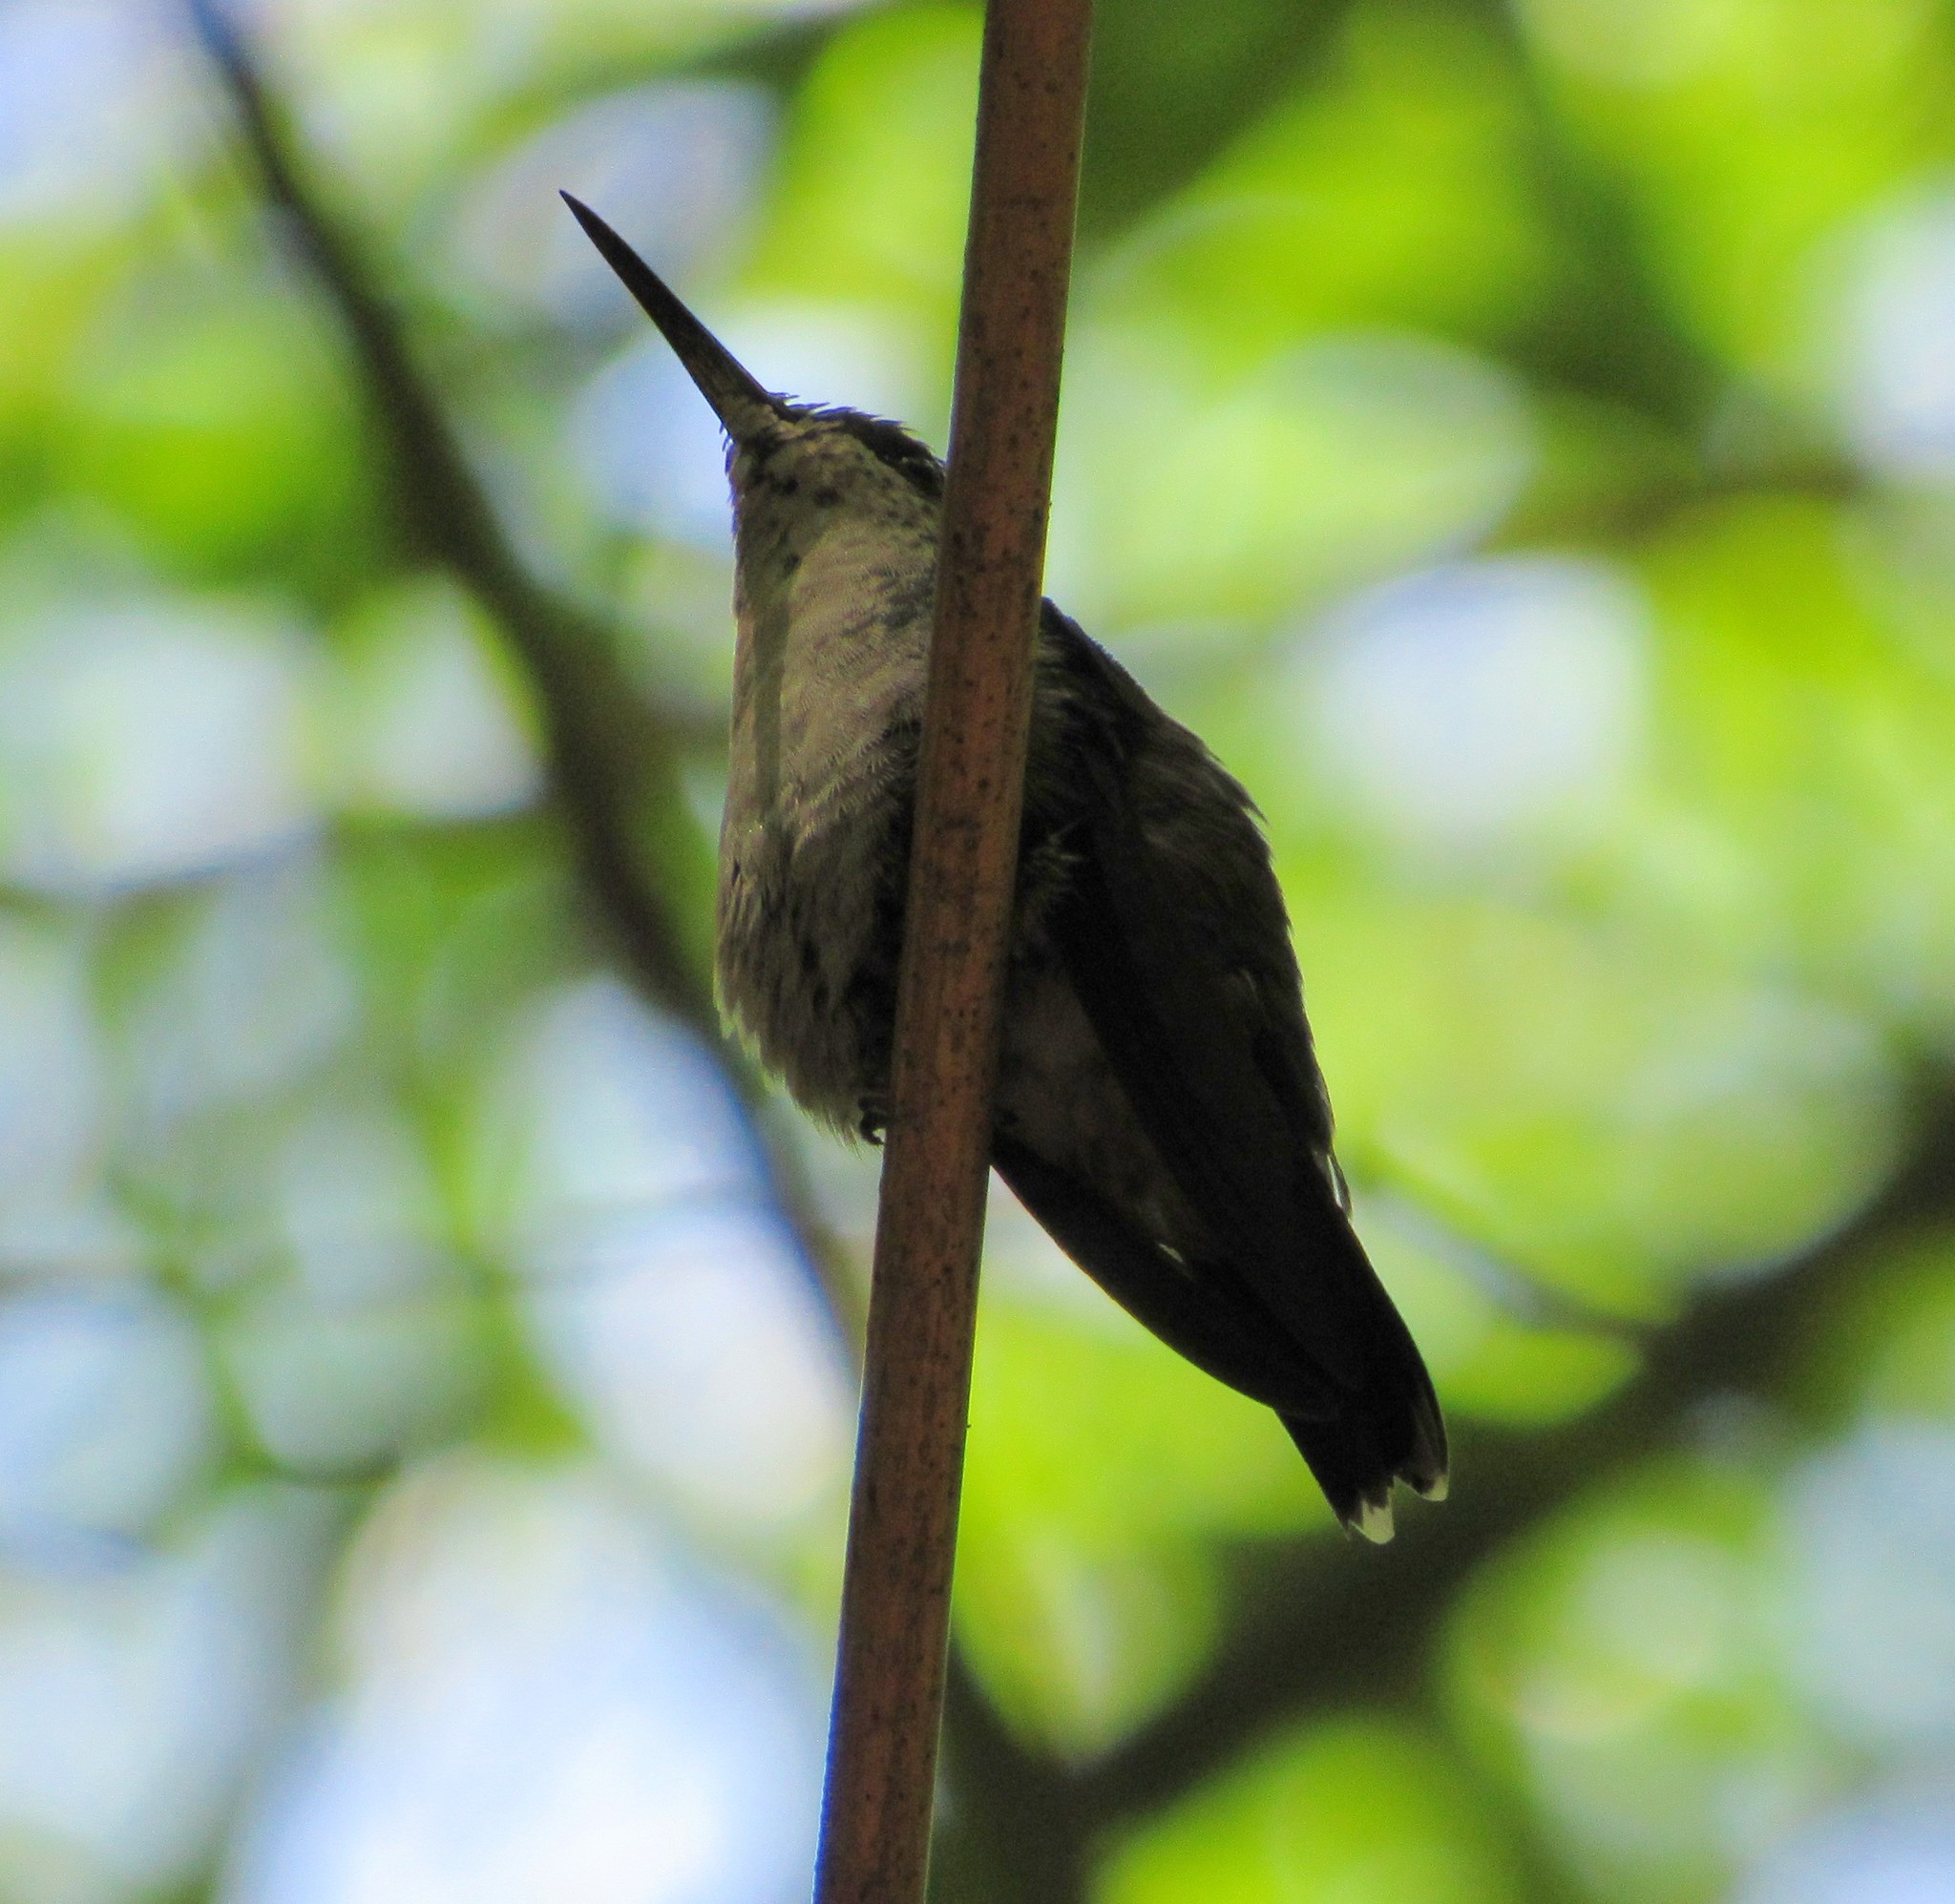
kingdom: Animalia
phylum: Chordata
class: Aves
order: Apodiformes
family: Trochilidae
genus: Eupetomena
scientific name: Eupetomena cirrochloris
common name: Sombre hummingbird
